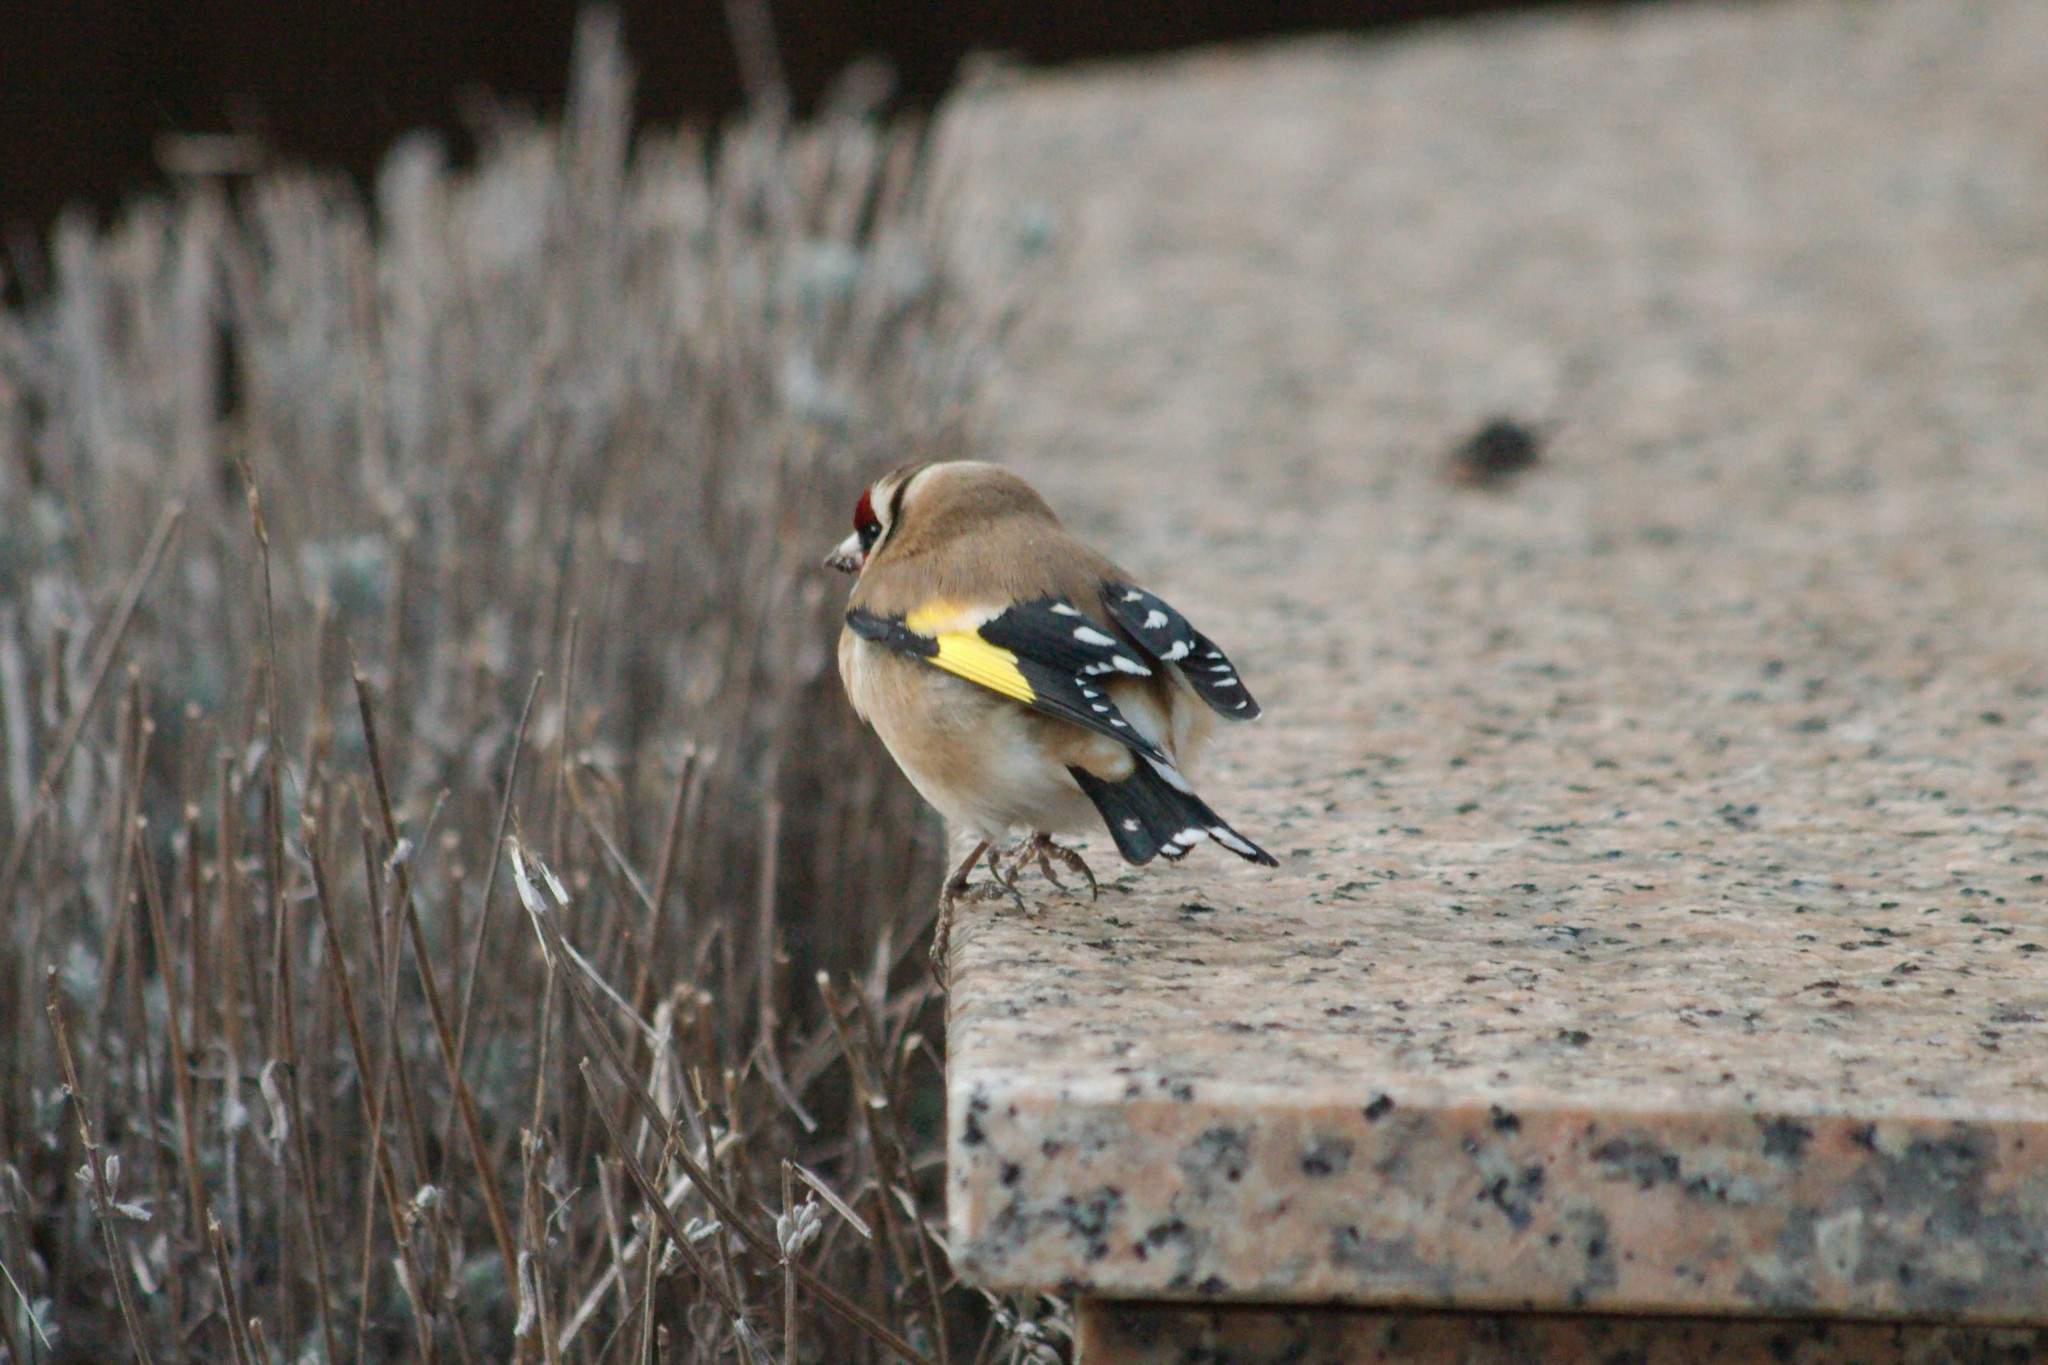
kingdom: Animalia
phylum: Chordata
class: Aves
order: Passeriformes
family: Fringillidae
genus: Carduelis
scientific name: Carduelis carduelis
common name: European goldfinch
